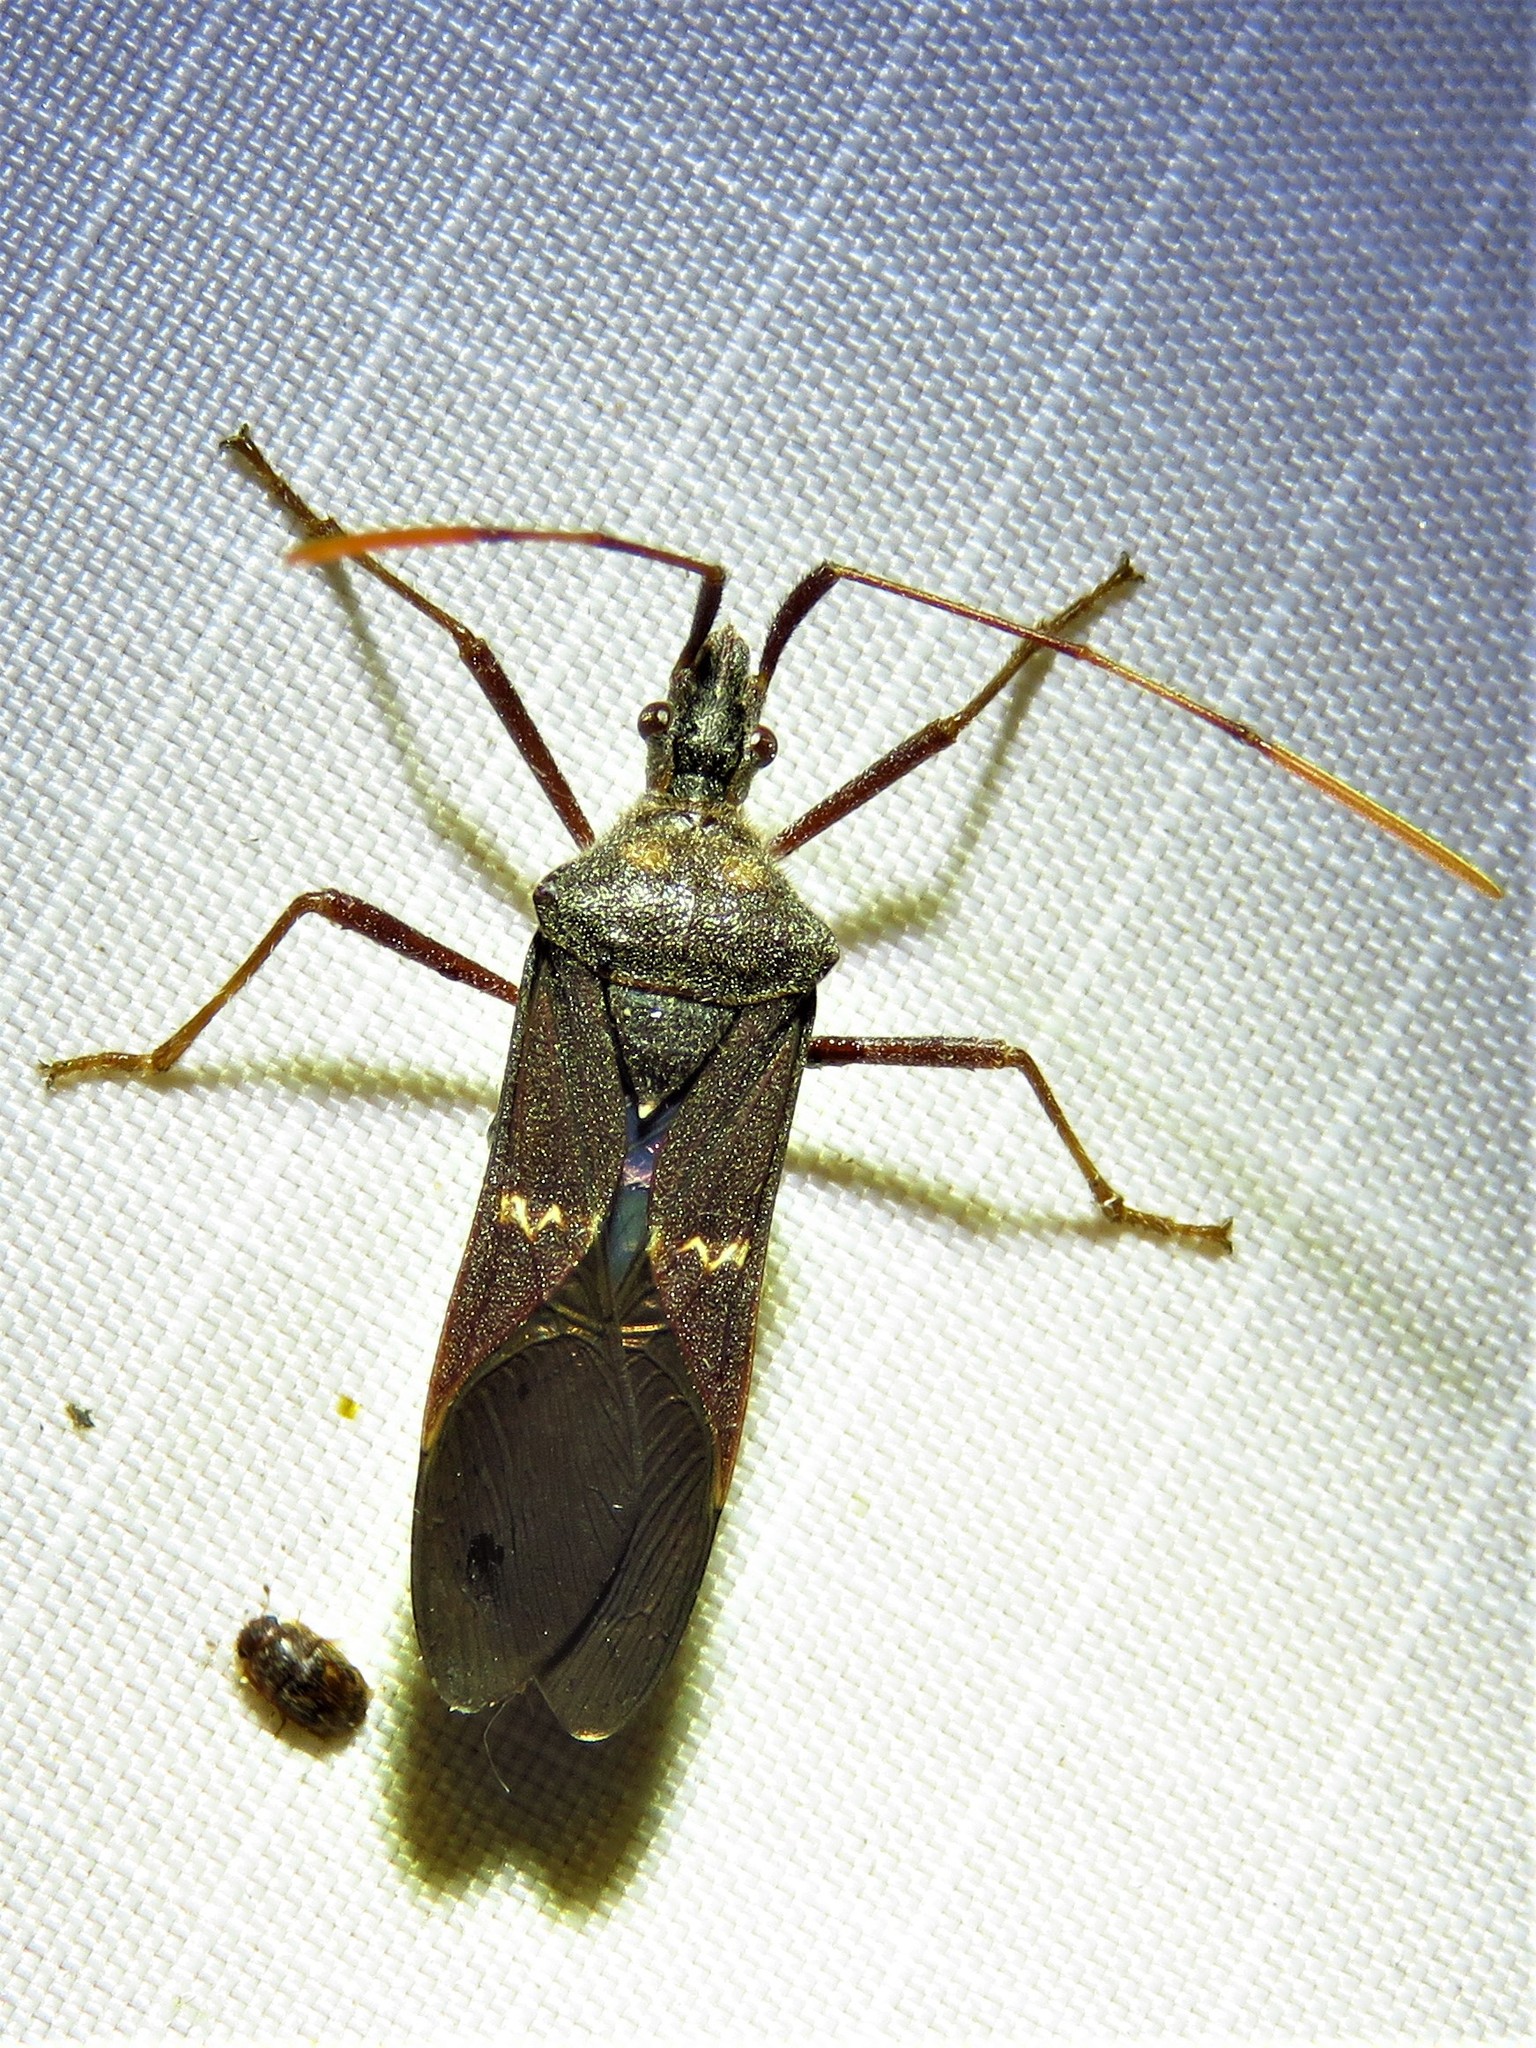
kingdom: Animalia
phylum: Arthropoda
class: Insecta
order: Hemiptera
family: Coreidae
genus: Leptoglossus
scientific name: Leptoglossus zonatus
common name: Large-legged bug
